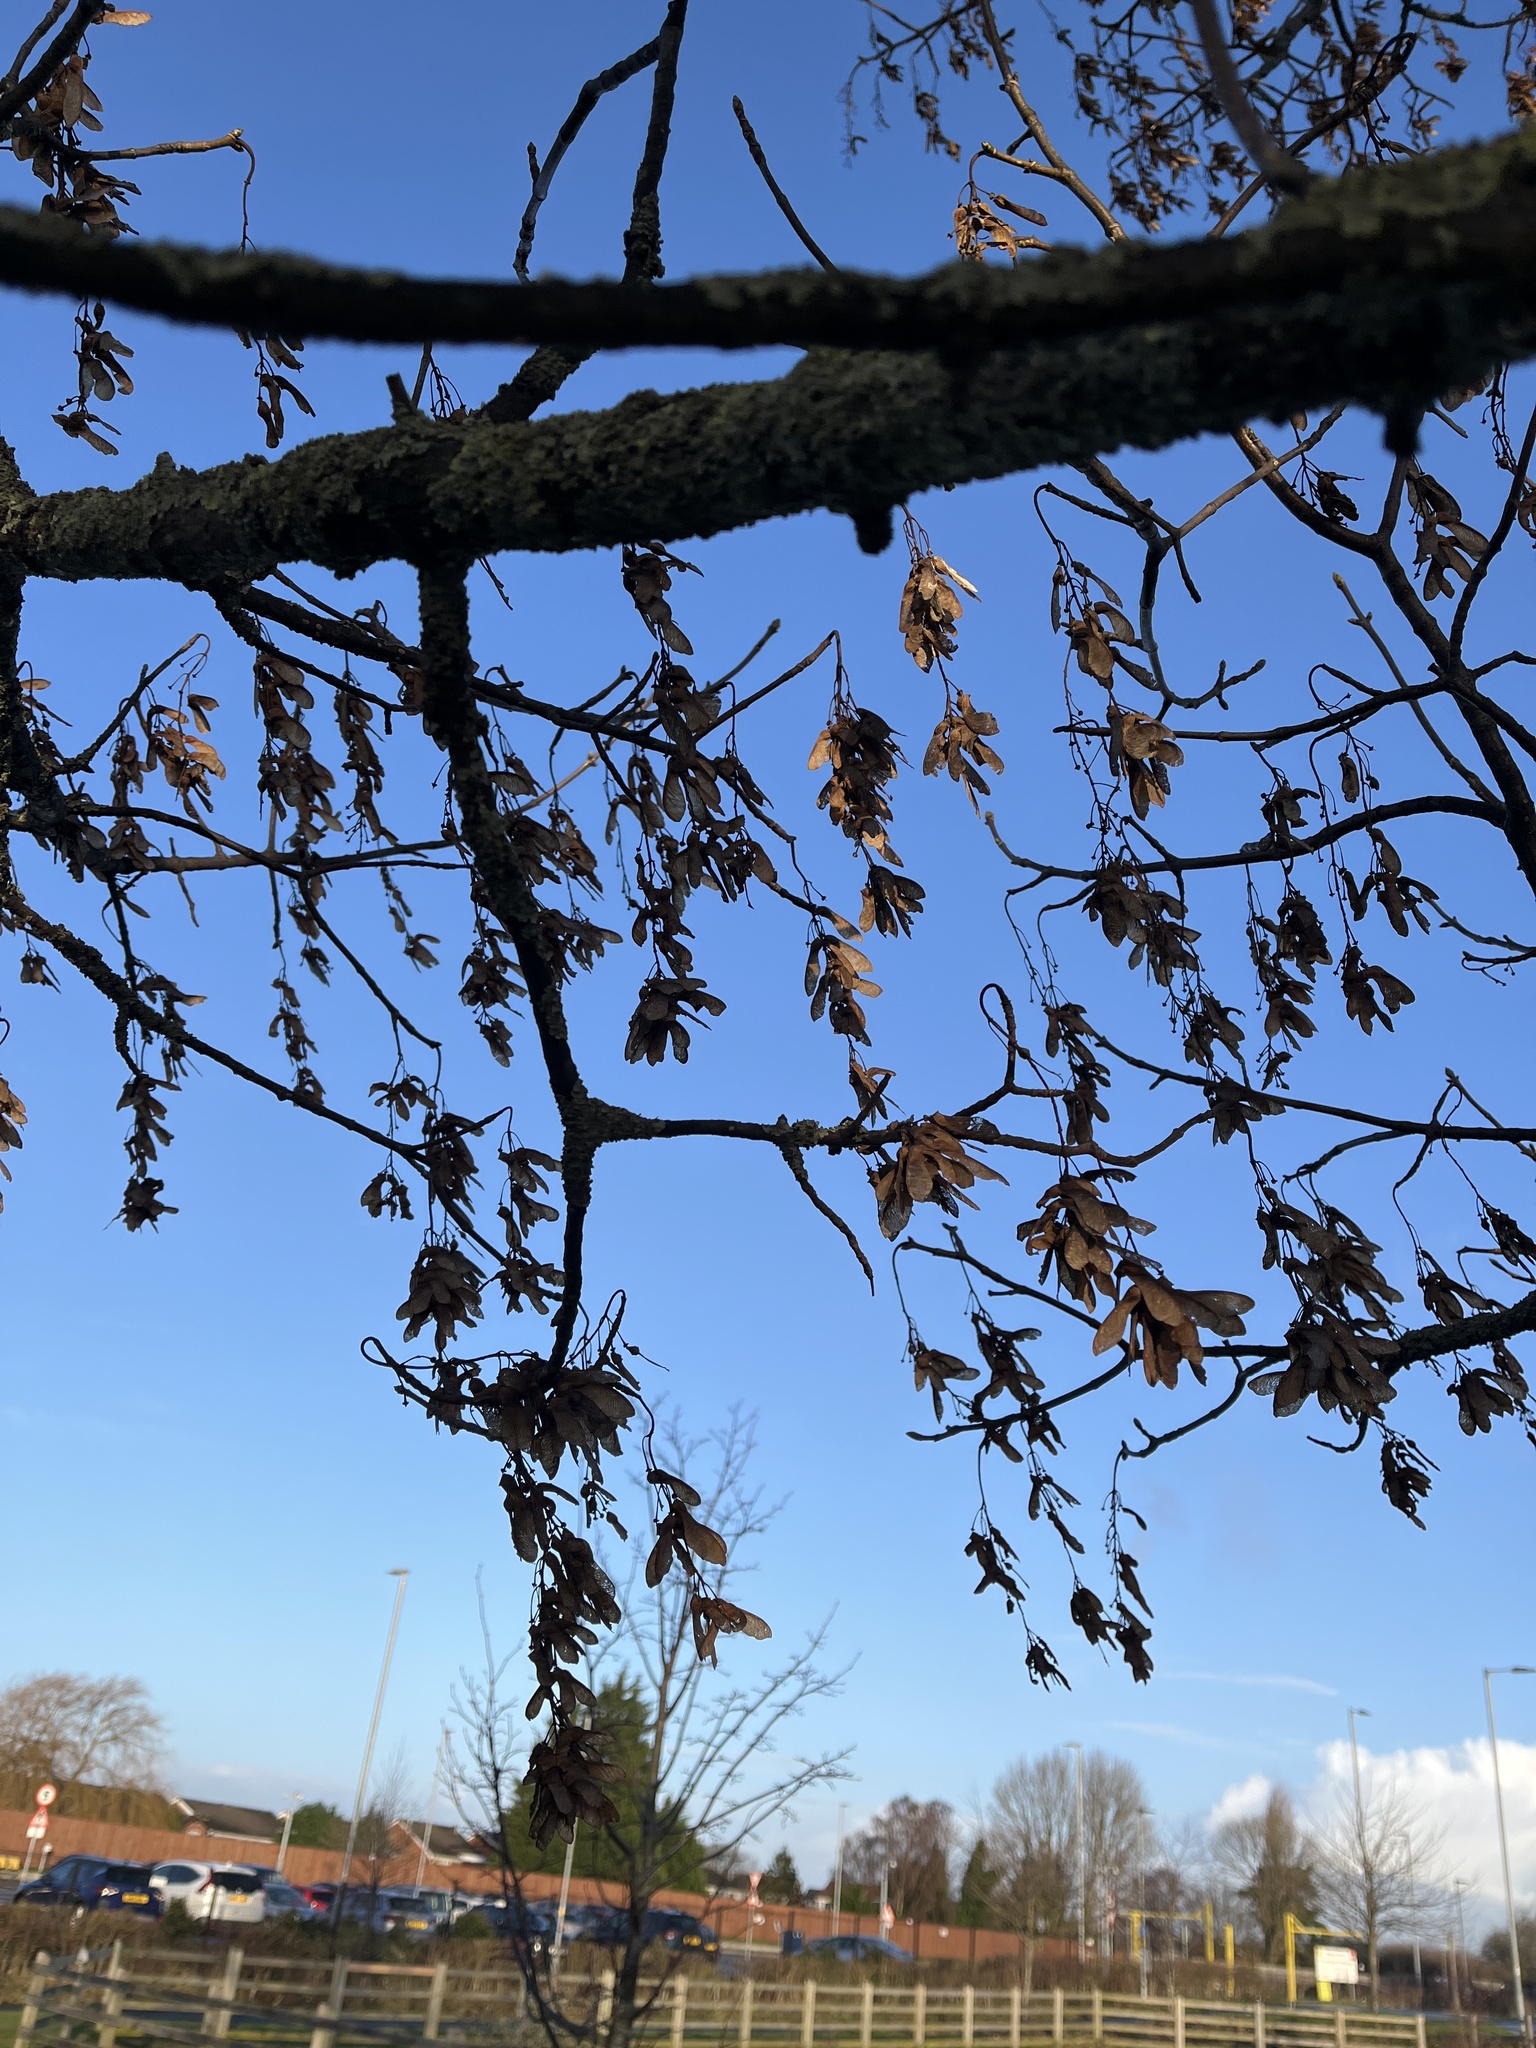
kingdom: Plantae
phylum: Tracheophyta
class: Magnoliopsida
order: Sapindales
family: Sapindaceae
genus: Acer
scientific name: Acer pseudoplatanus
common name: Sycamore
